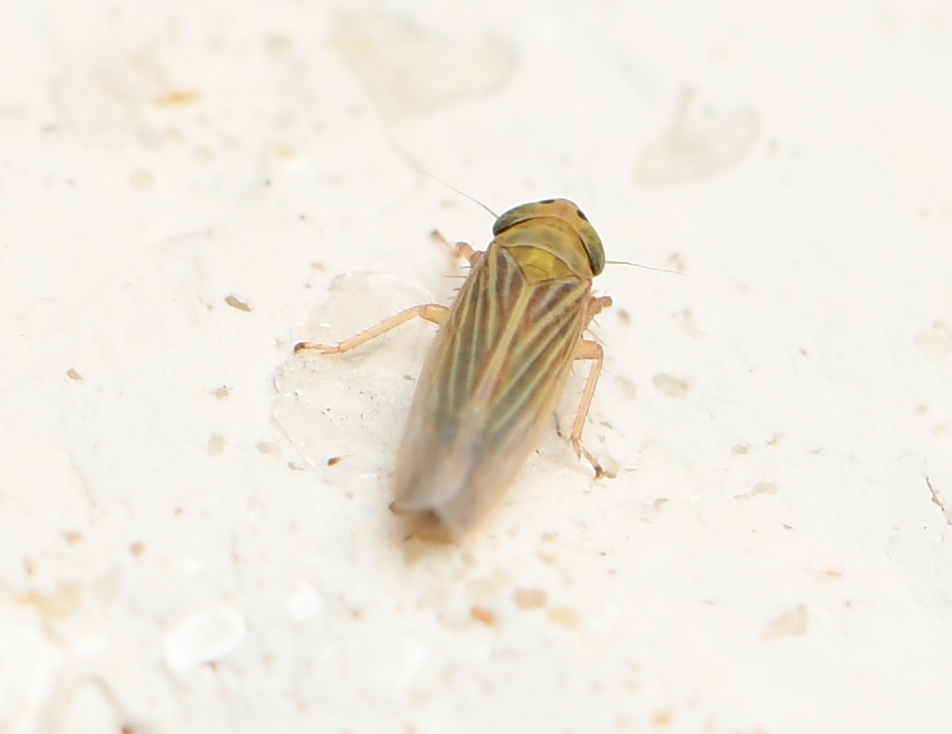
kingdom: Animalia
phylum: Arthropoda
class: Insecta
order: Hemiptera
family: Cicadellidae
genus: Graminella
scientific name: Graminella cognita
